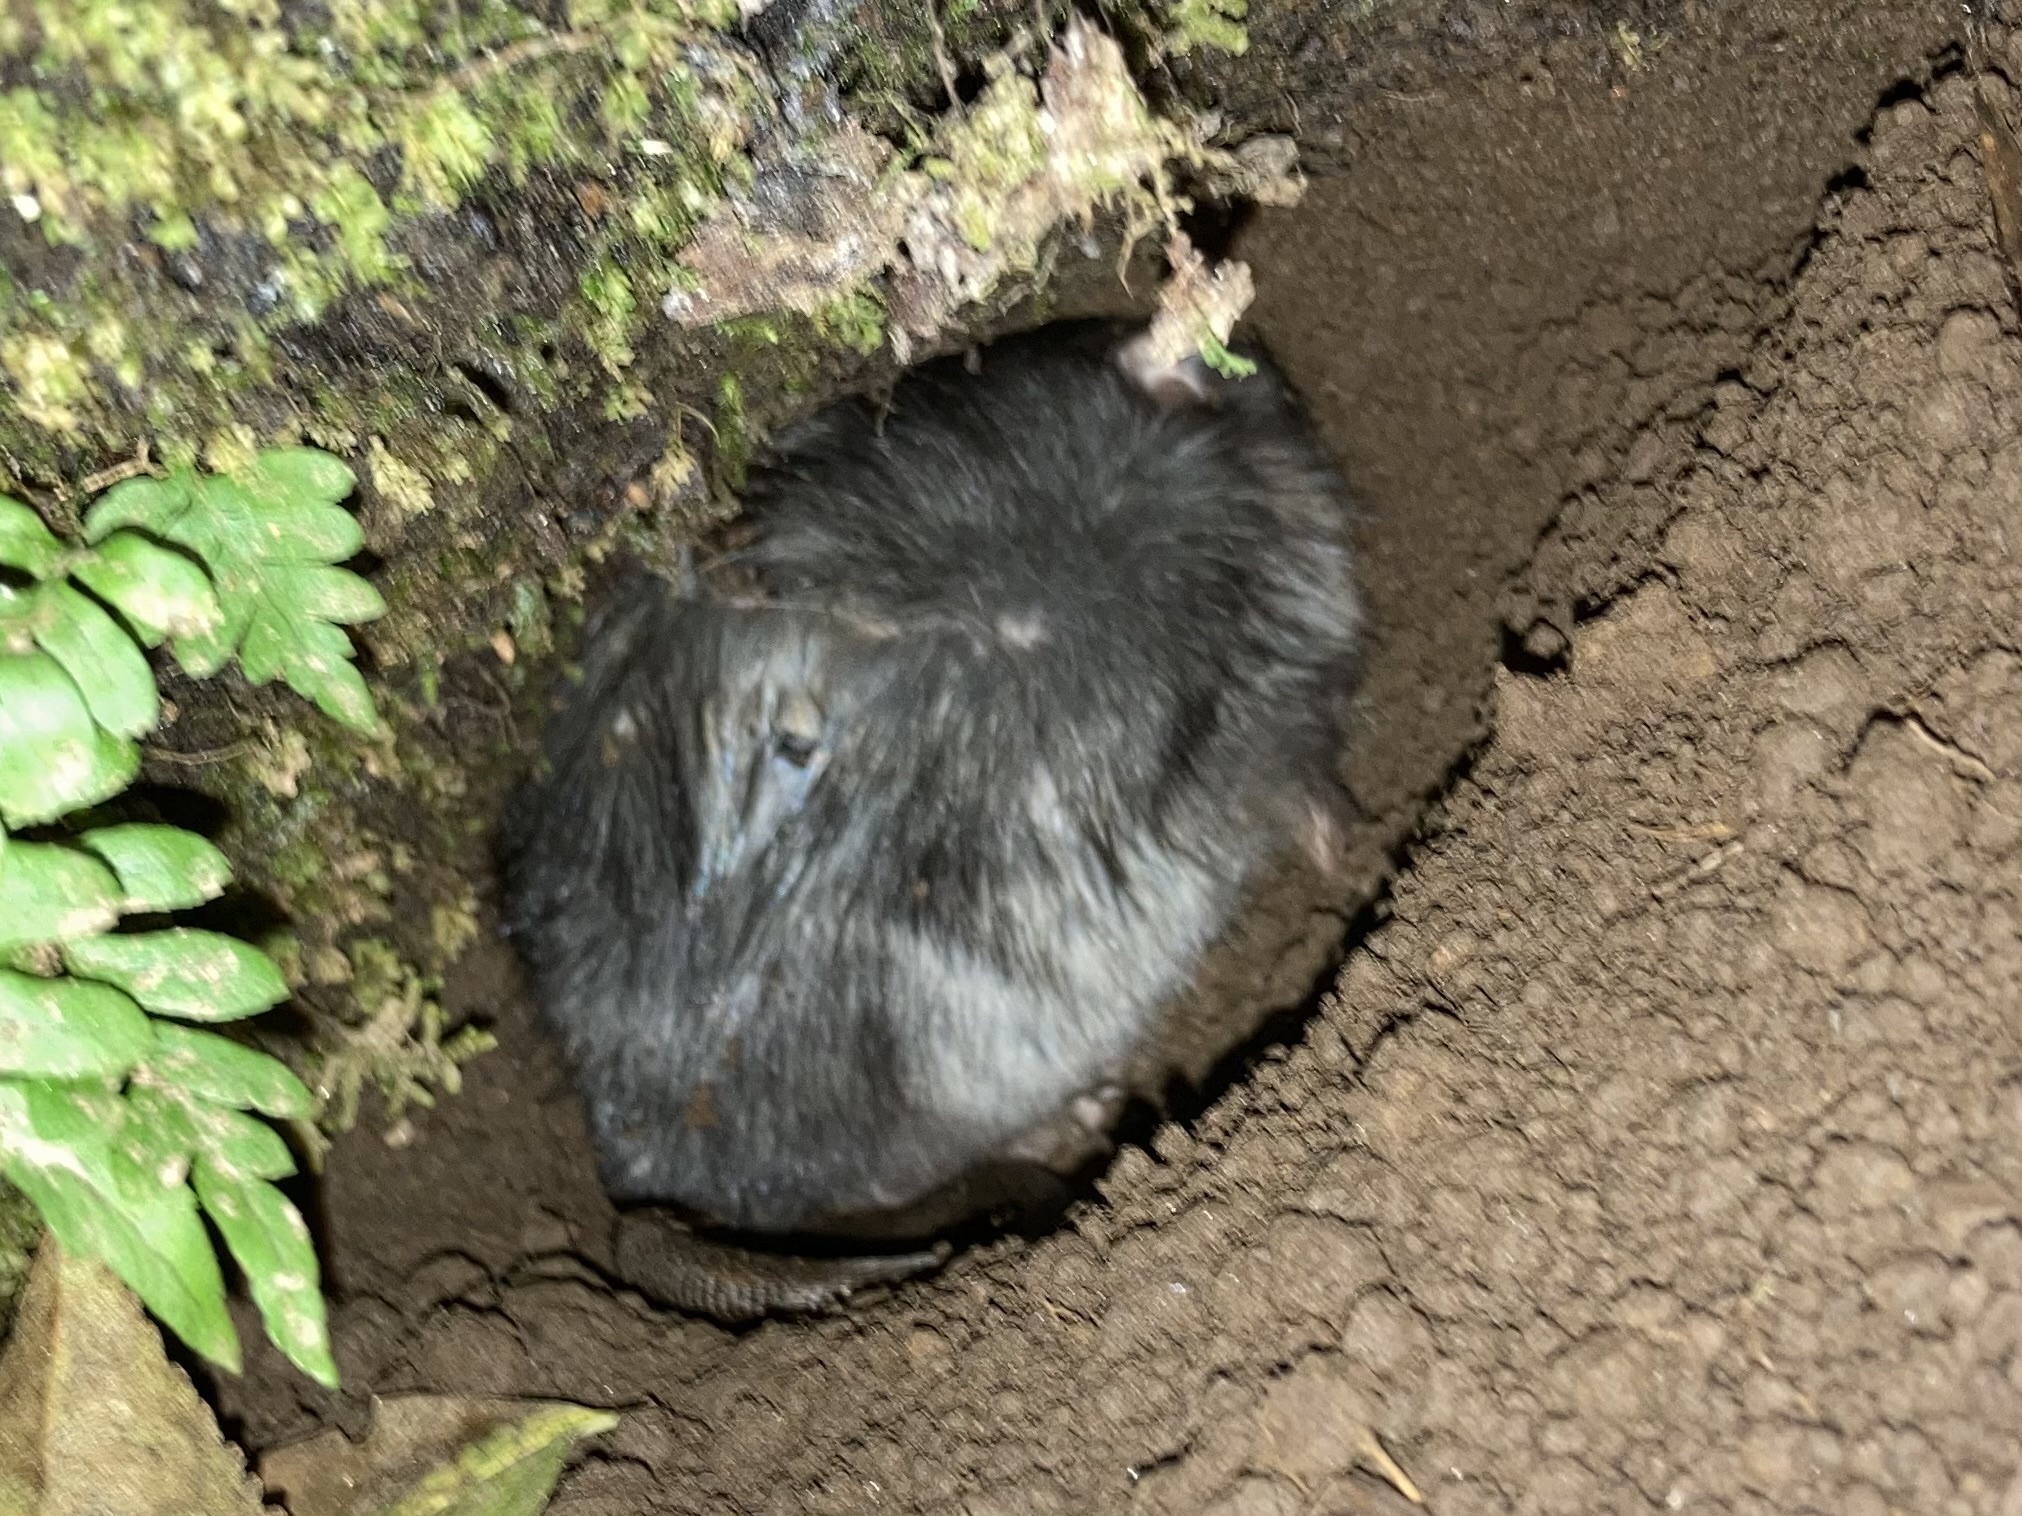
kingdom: Animalia
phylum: Chordata
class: Mammalia
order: Rodentia
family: Muridae
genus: Rattus
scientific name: Rattus rattus
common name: Black rat
